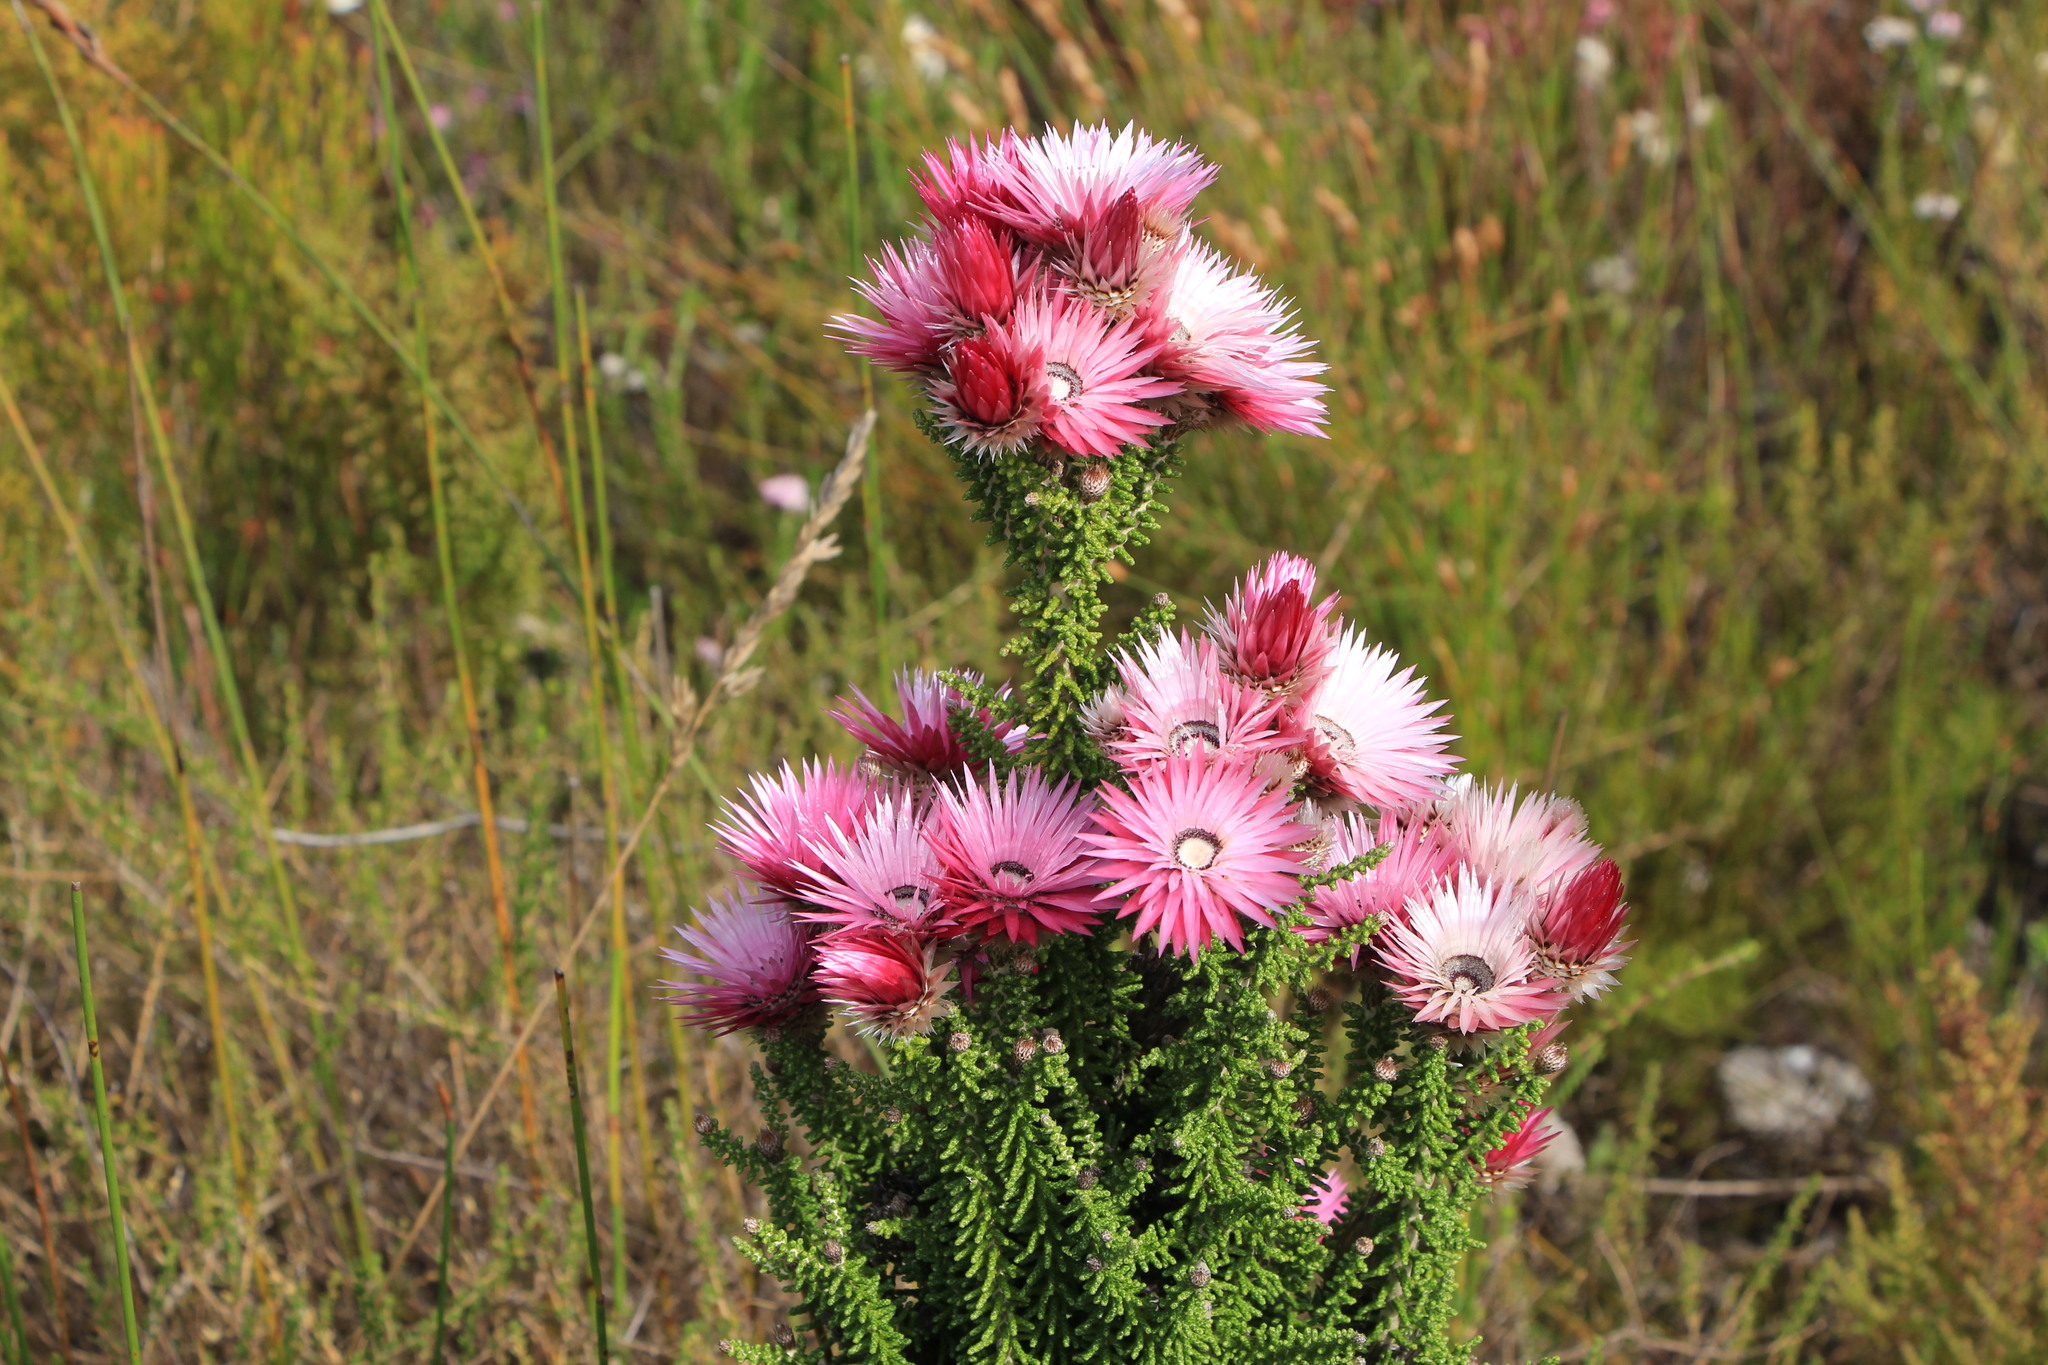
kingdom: Plantae
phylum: Tracheophyta
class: Magnoliopsida
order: Asterales
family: Asteraceae
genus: Phaenocoma
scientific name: Phaenocoma prolifera
